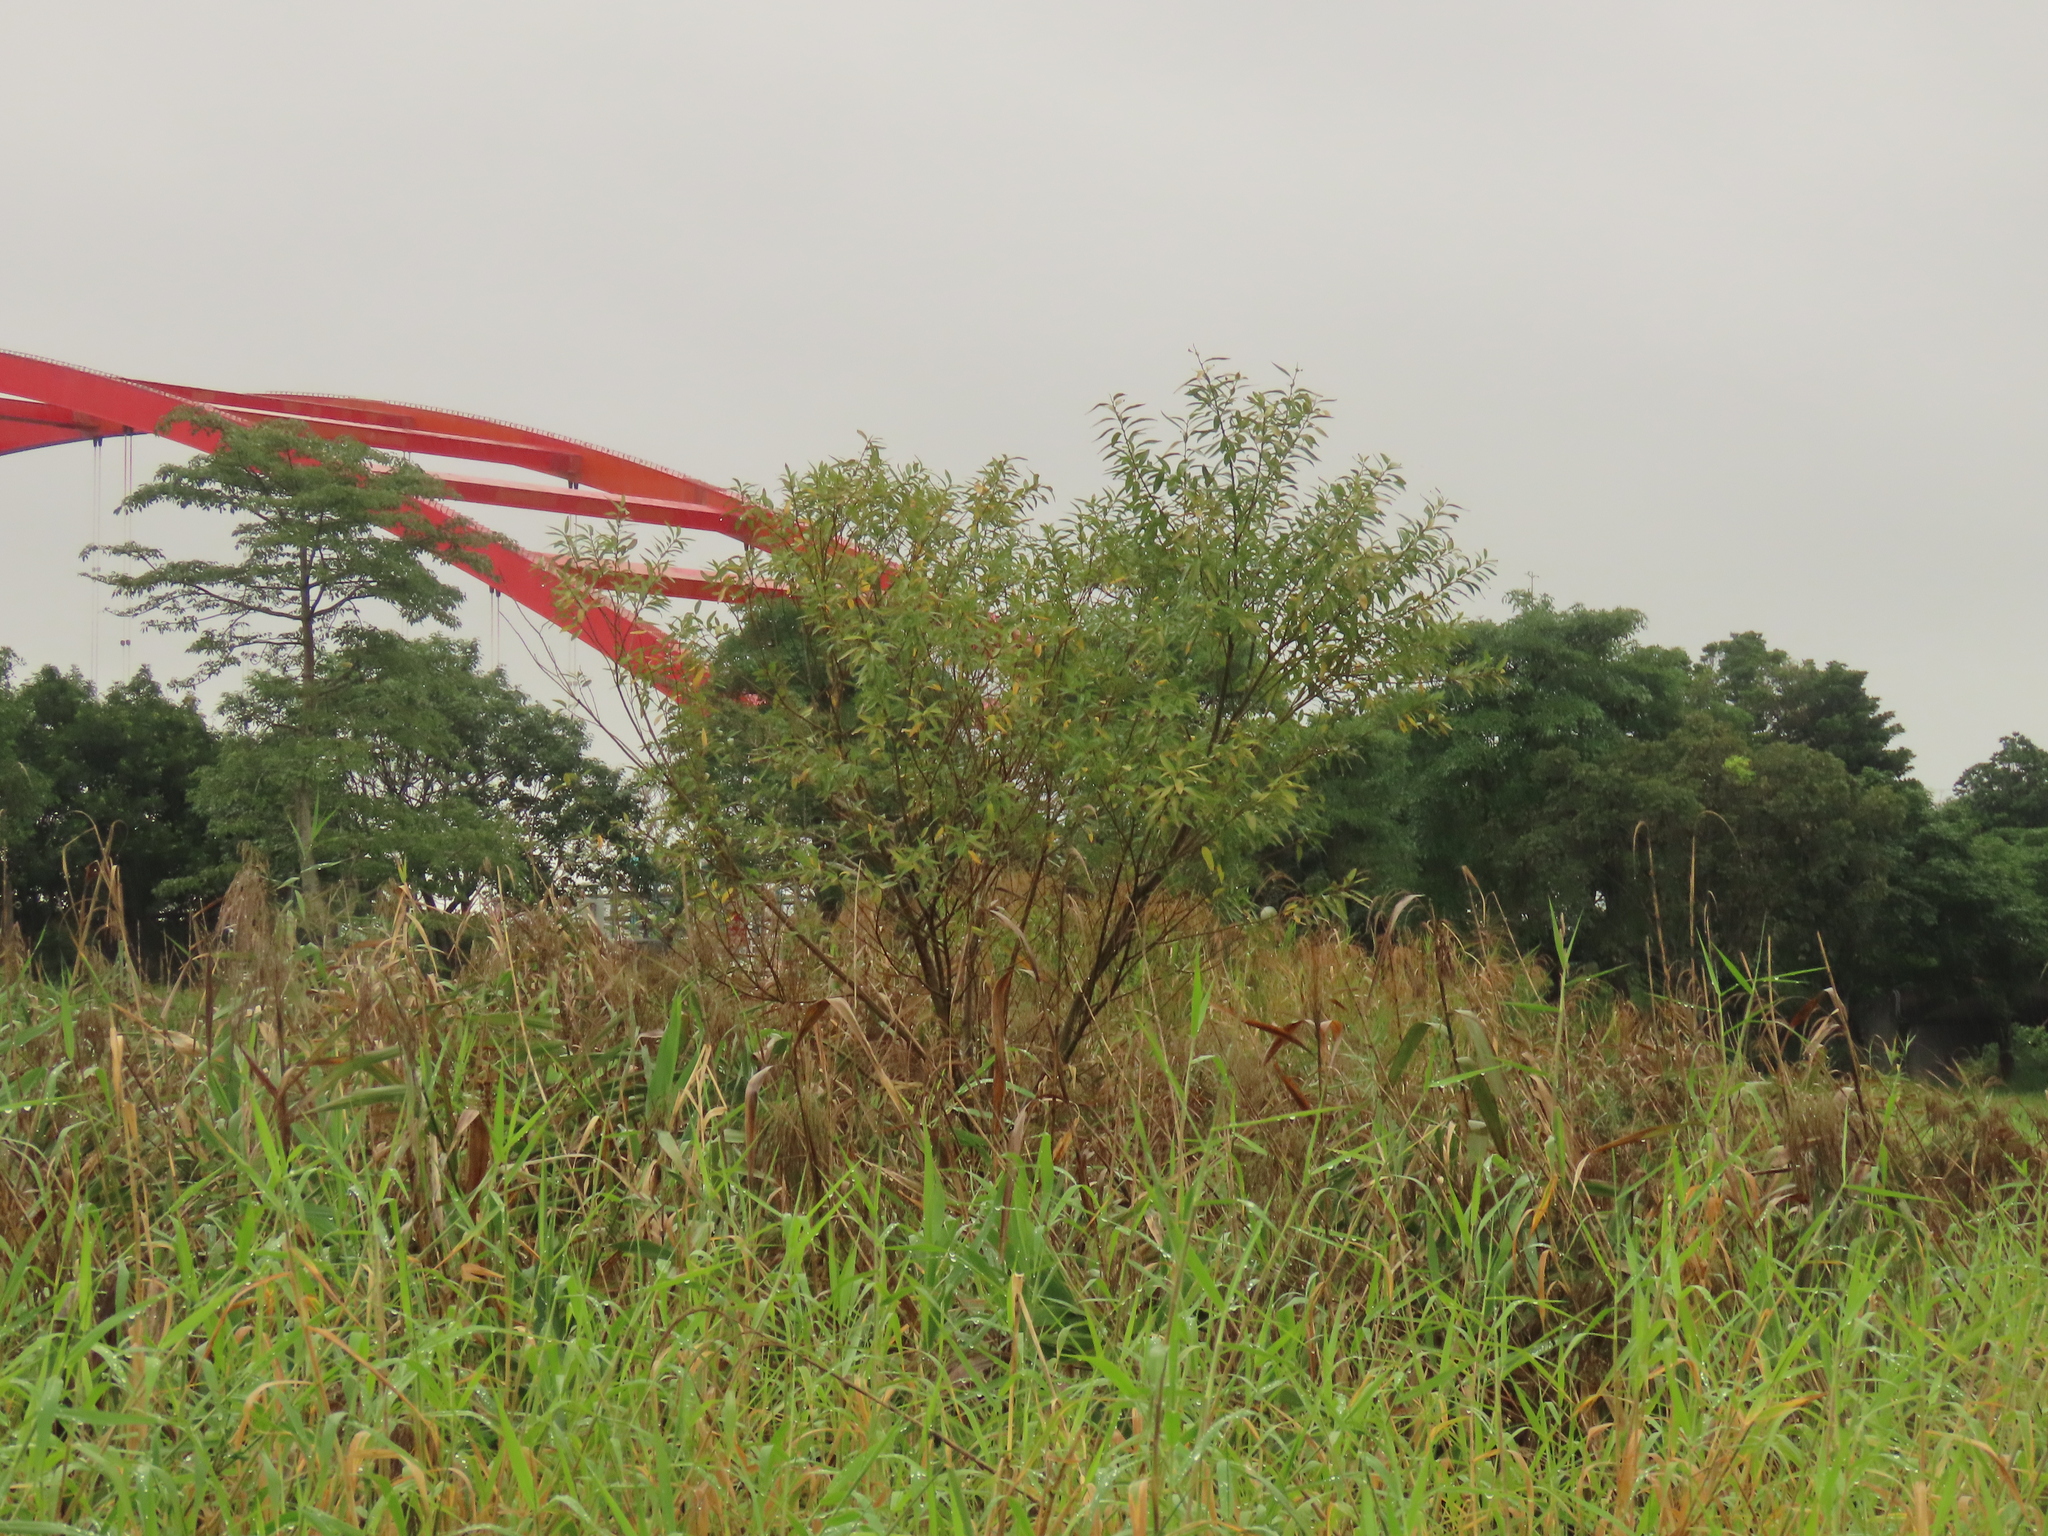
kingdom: Plantae
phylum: Tracheophyta
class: Magnoliopsida
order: Malpighiales
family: Salicaceae
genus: Salix
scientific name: Salix mesnyi
